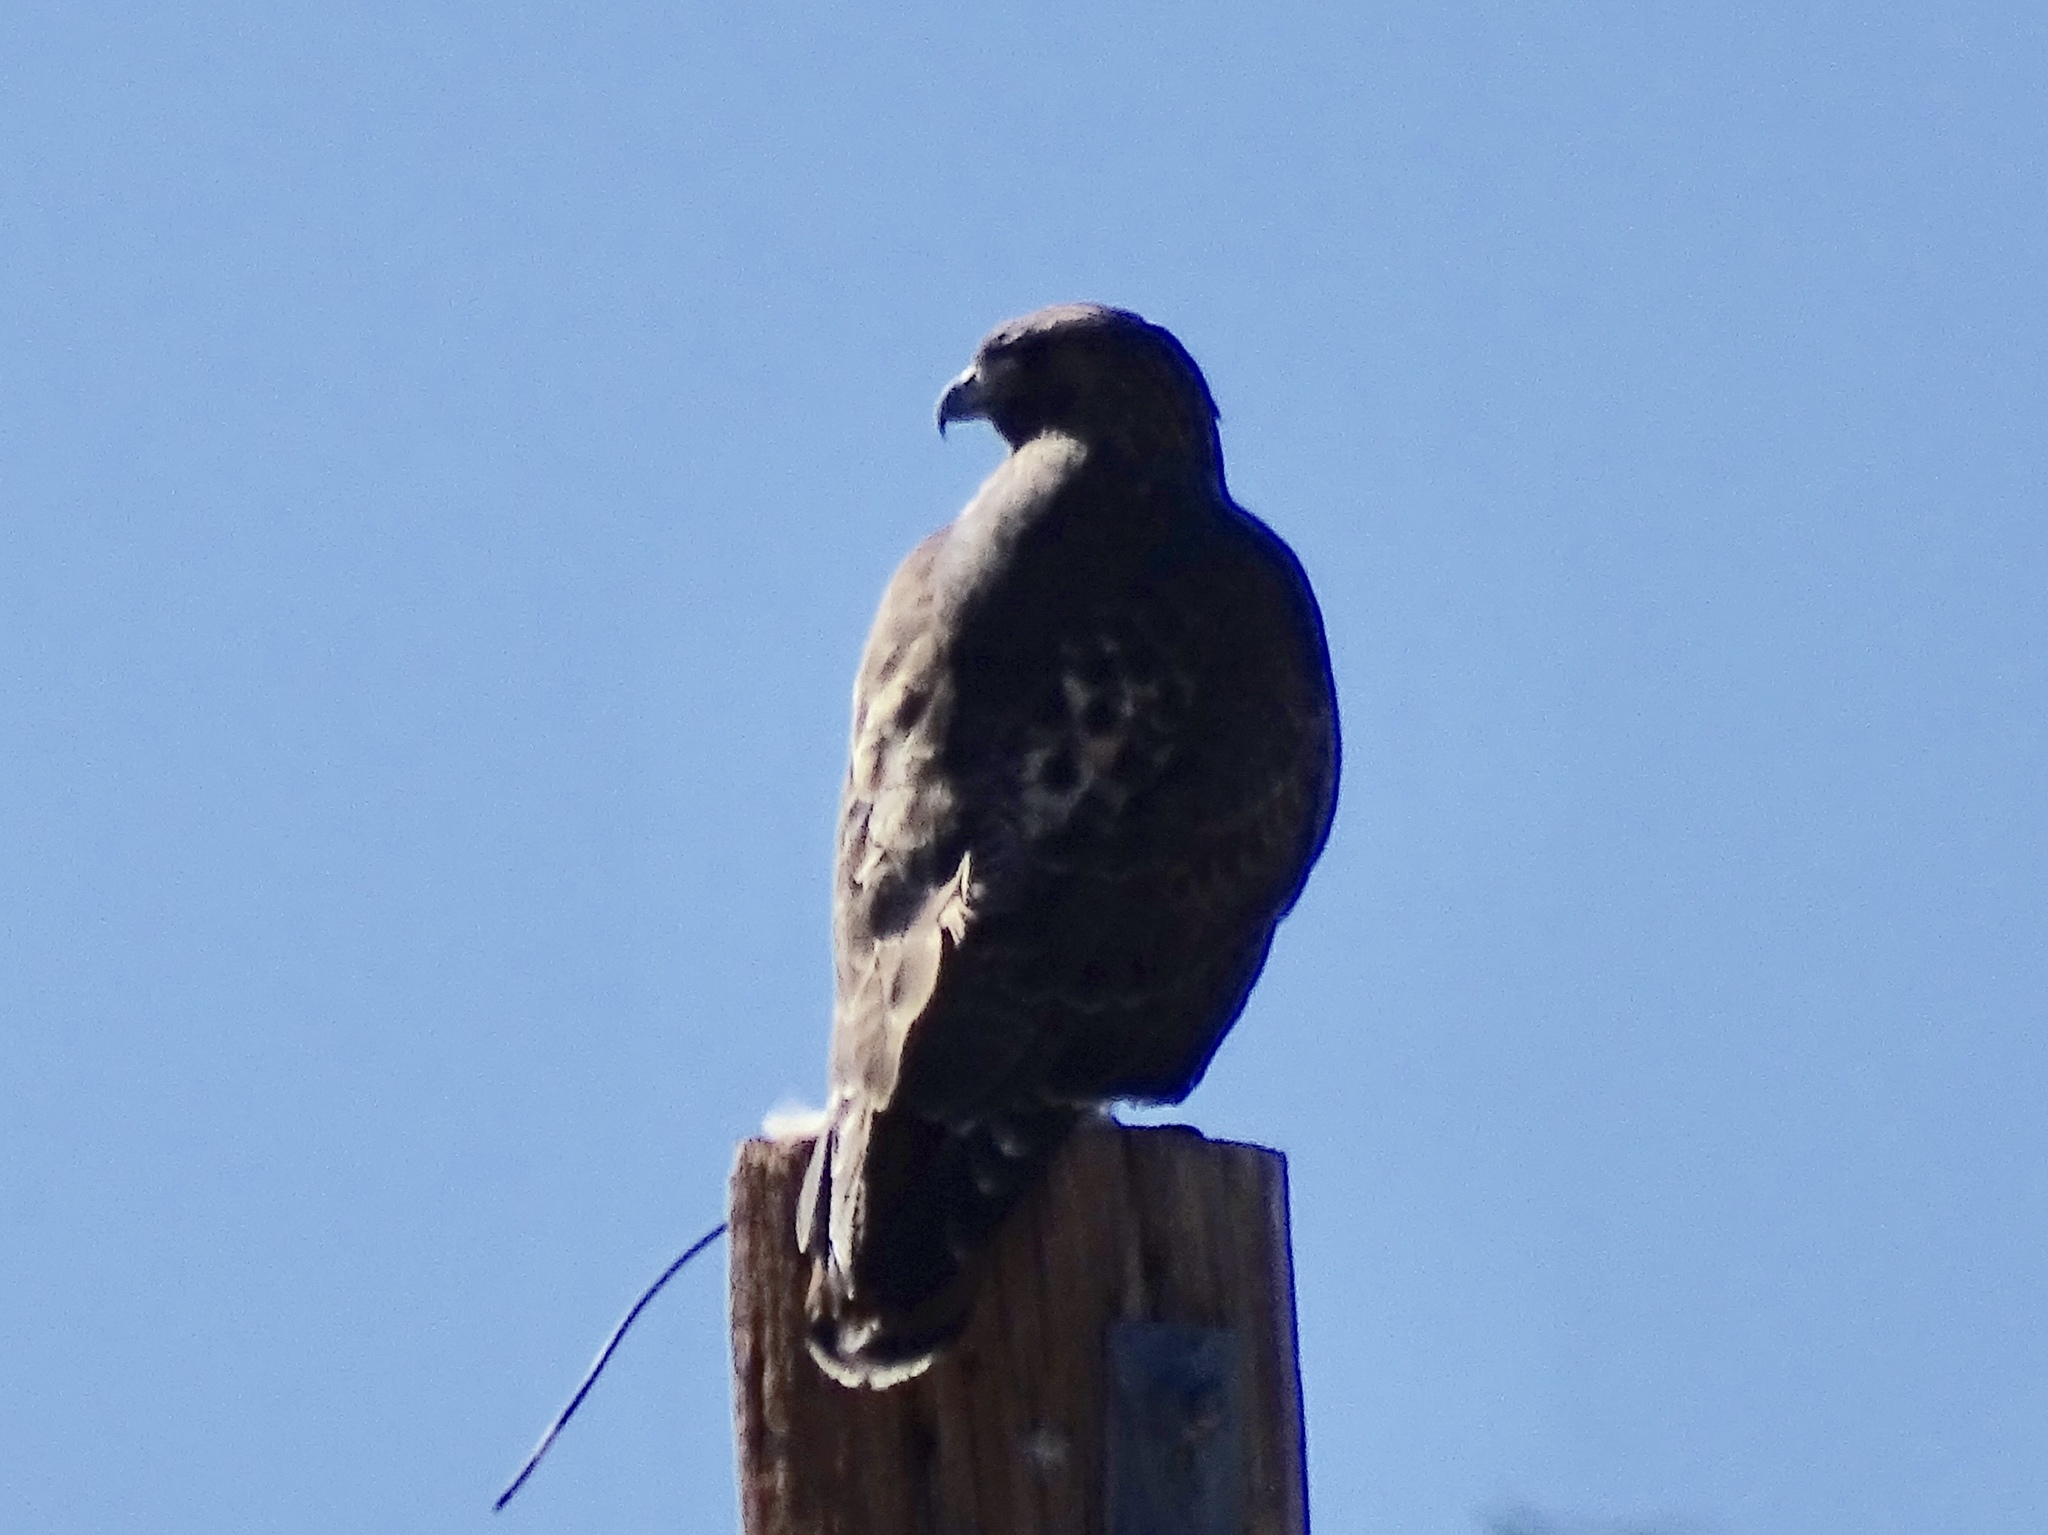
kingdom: Animalia
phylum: Chordata
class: Aves
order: Accipitriformes
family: Accipitridae
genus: Buteo
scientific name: Buteo jamaicensis
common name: Red-tailed hawk
